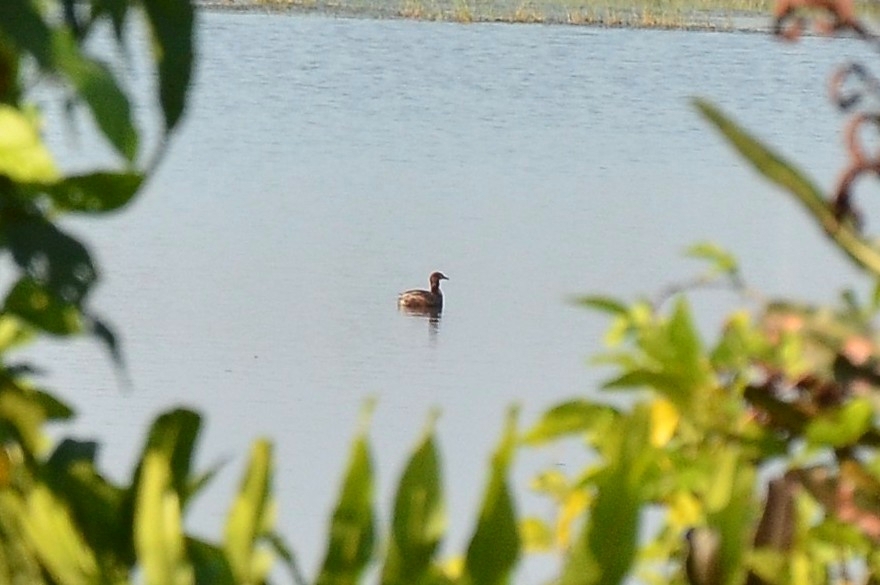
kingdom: Animalia
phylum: Chordata
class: Aves
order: Podicipediformes
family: Podicipedidae
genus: Tachybaptus
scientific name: Tachybaptus ruficollis
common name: Little grebe
